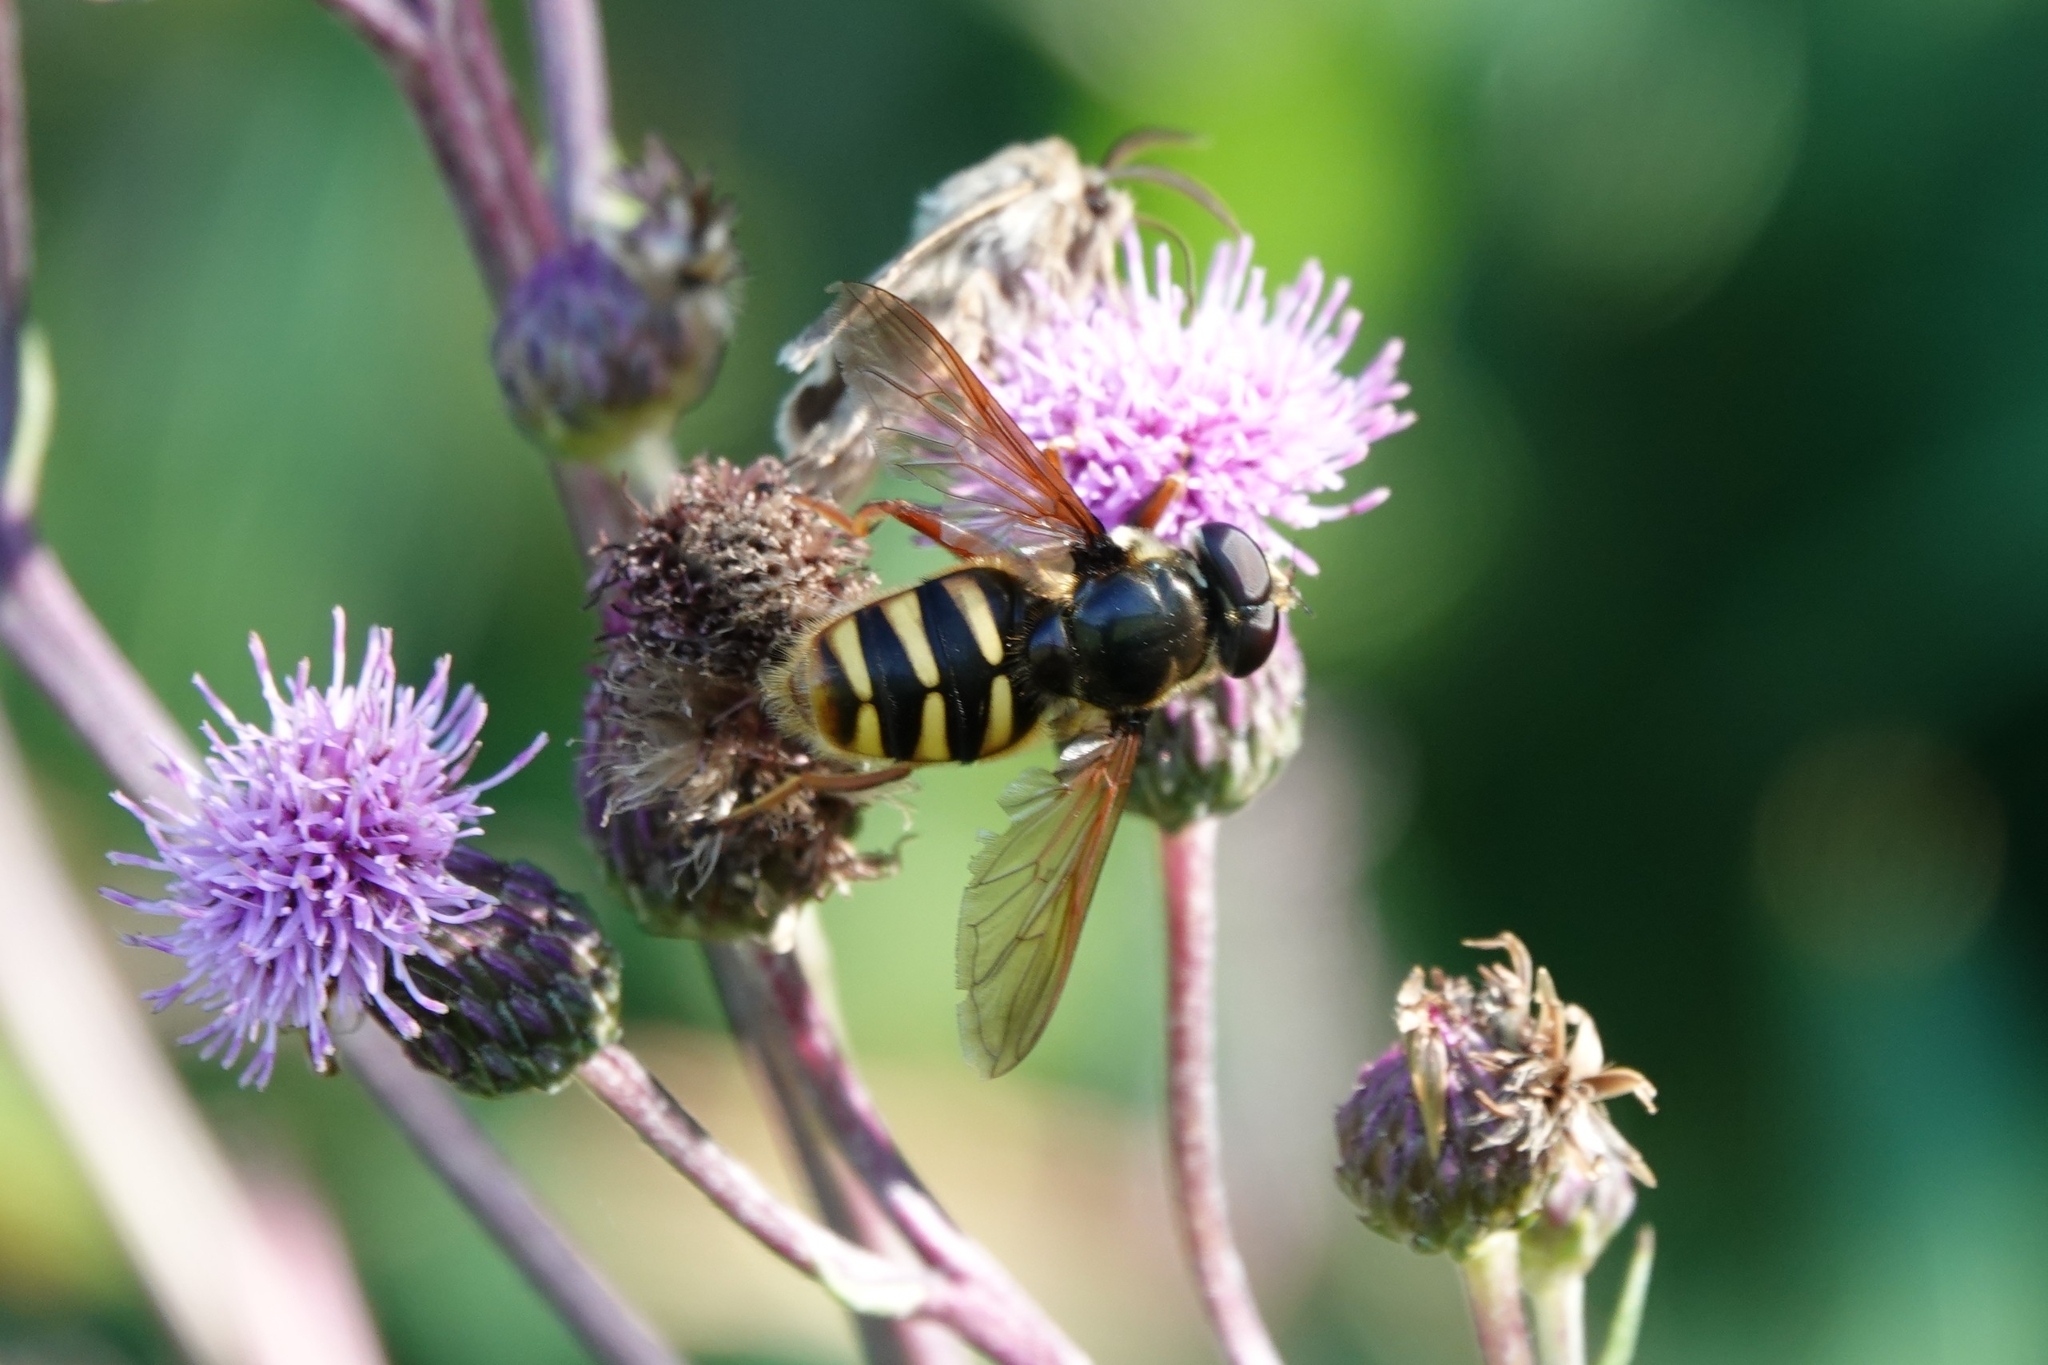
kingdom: Animalia
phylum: Arthropoda
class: Insecta
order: Diptera
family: Syrphidae
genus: Sericomyia
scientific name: Sericomyia silentis
